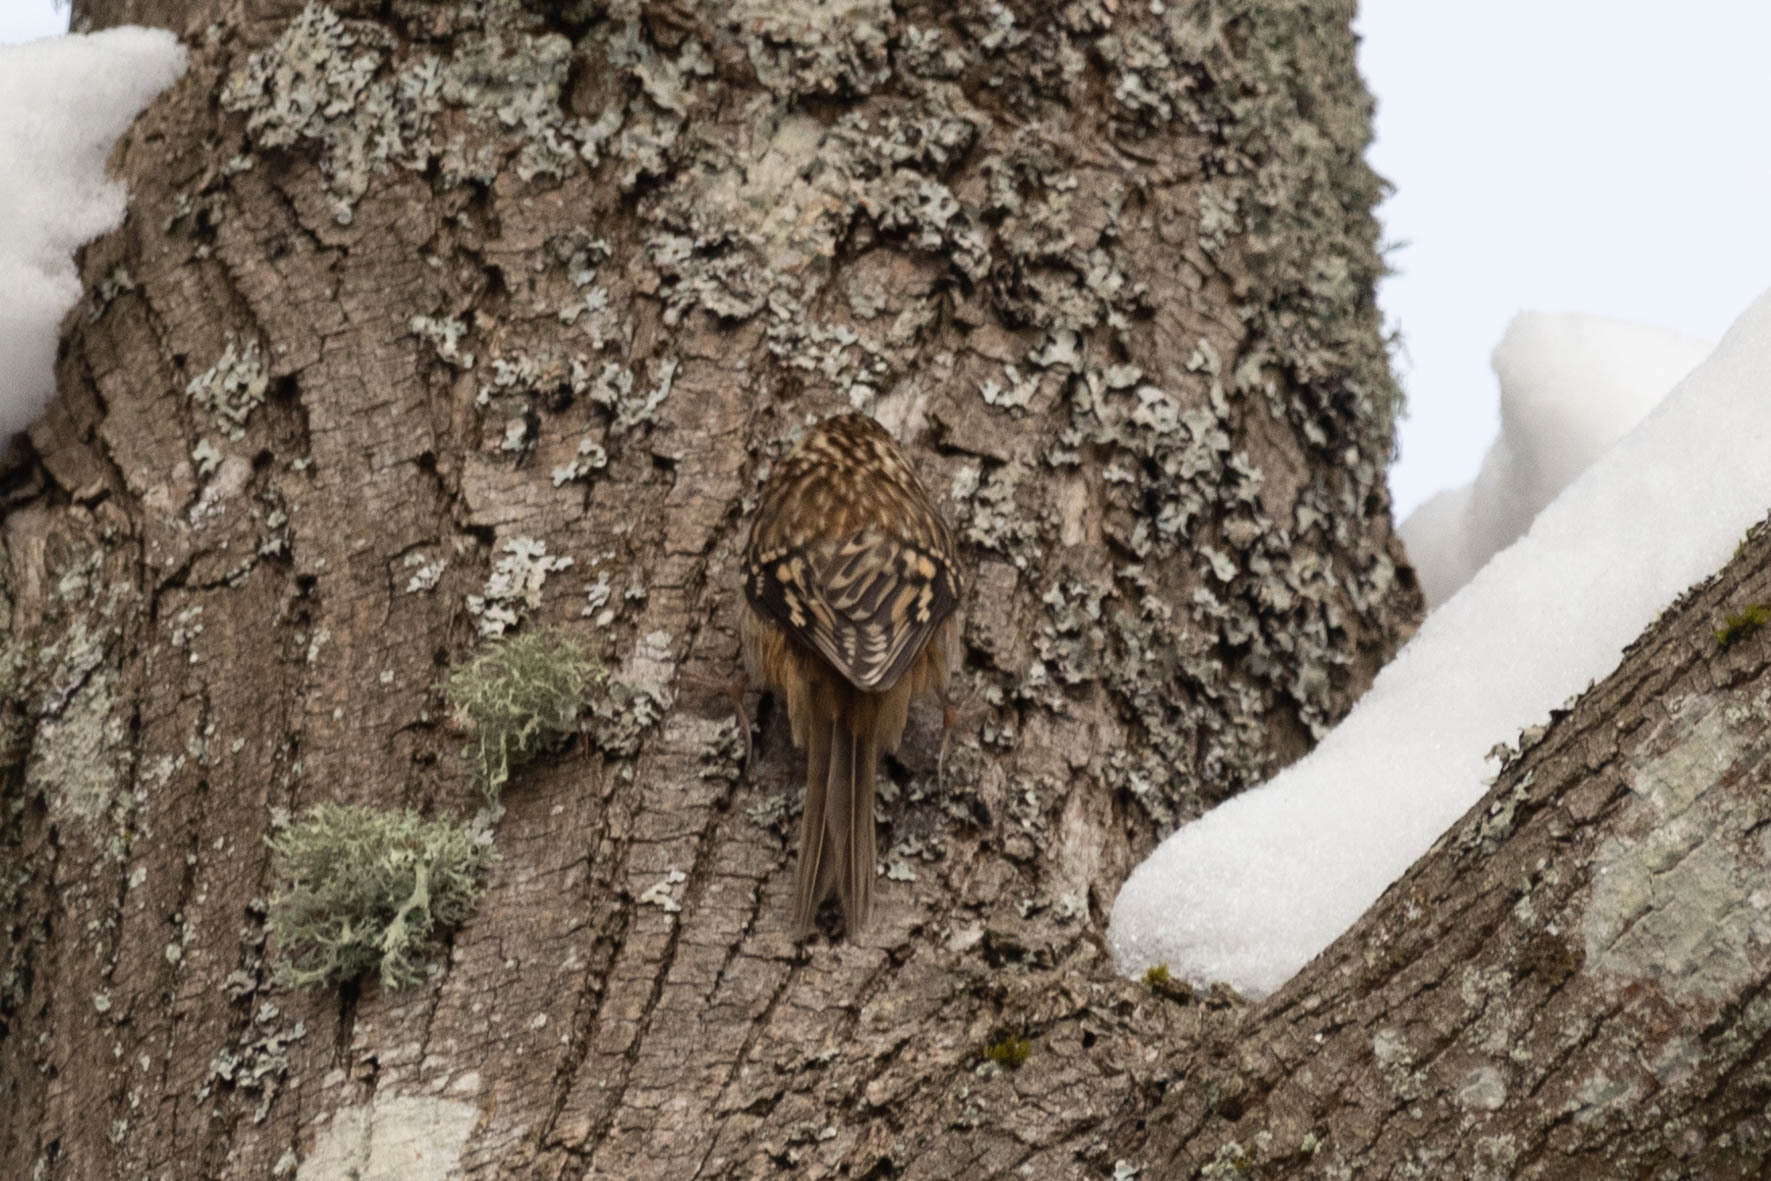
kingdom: Animalia
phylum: Chordata
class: Aves
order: Passeriformes
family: Certhiidae
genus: Certhia
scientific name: Certhia americana
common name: Brown creeper
